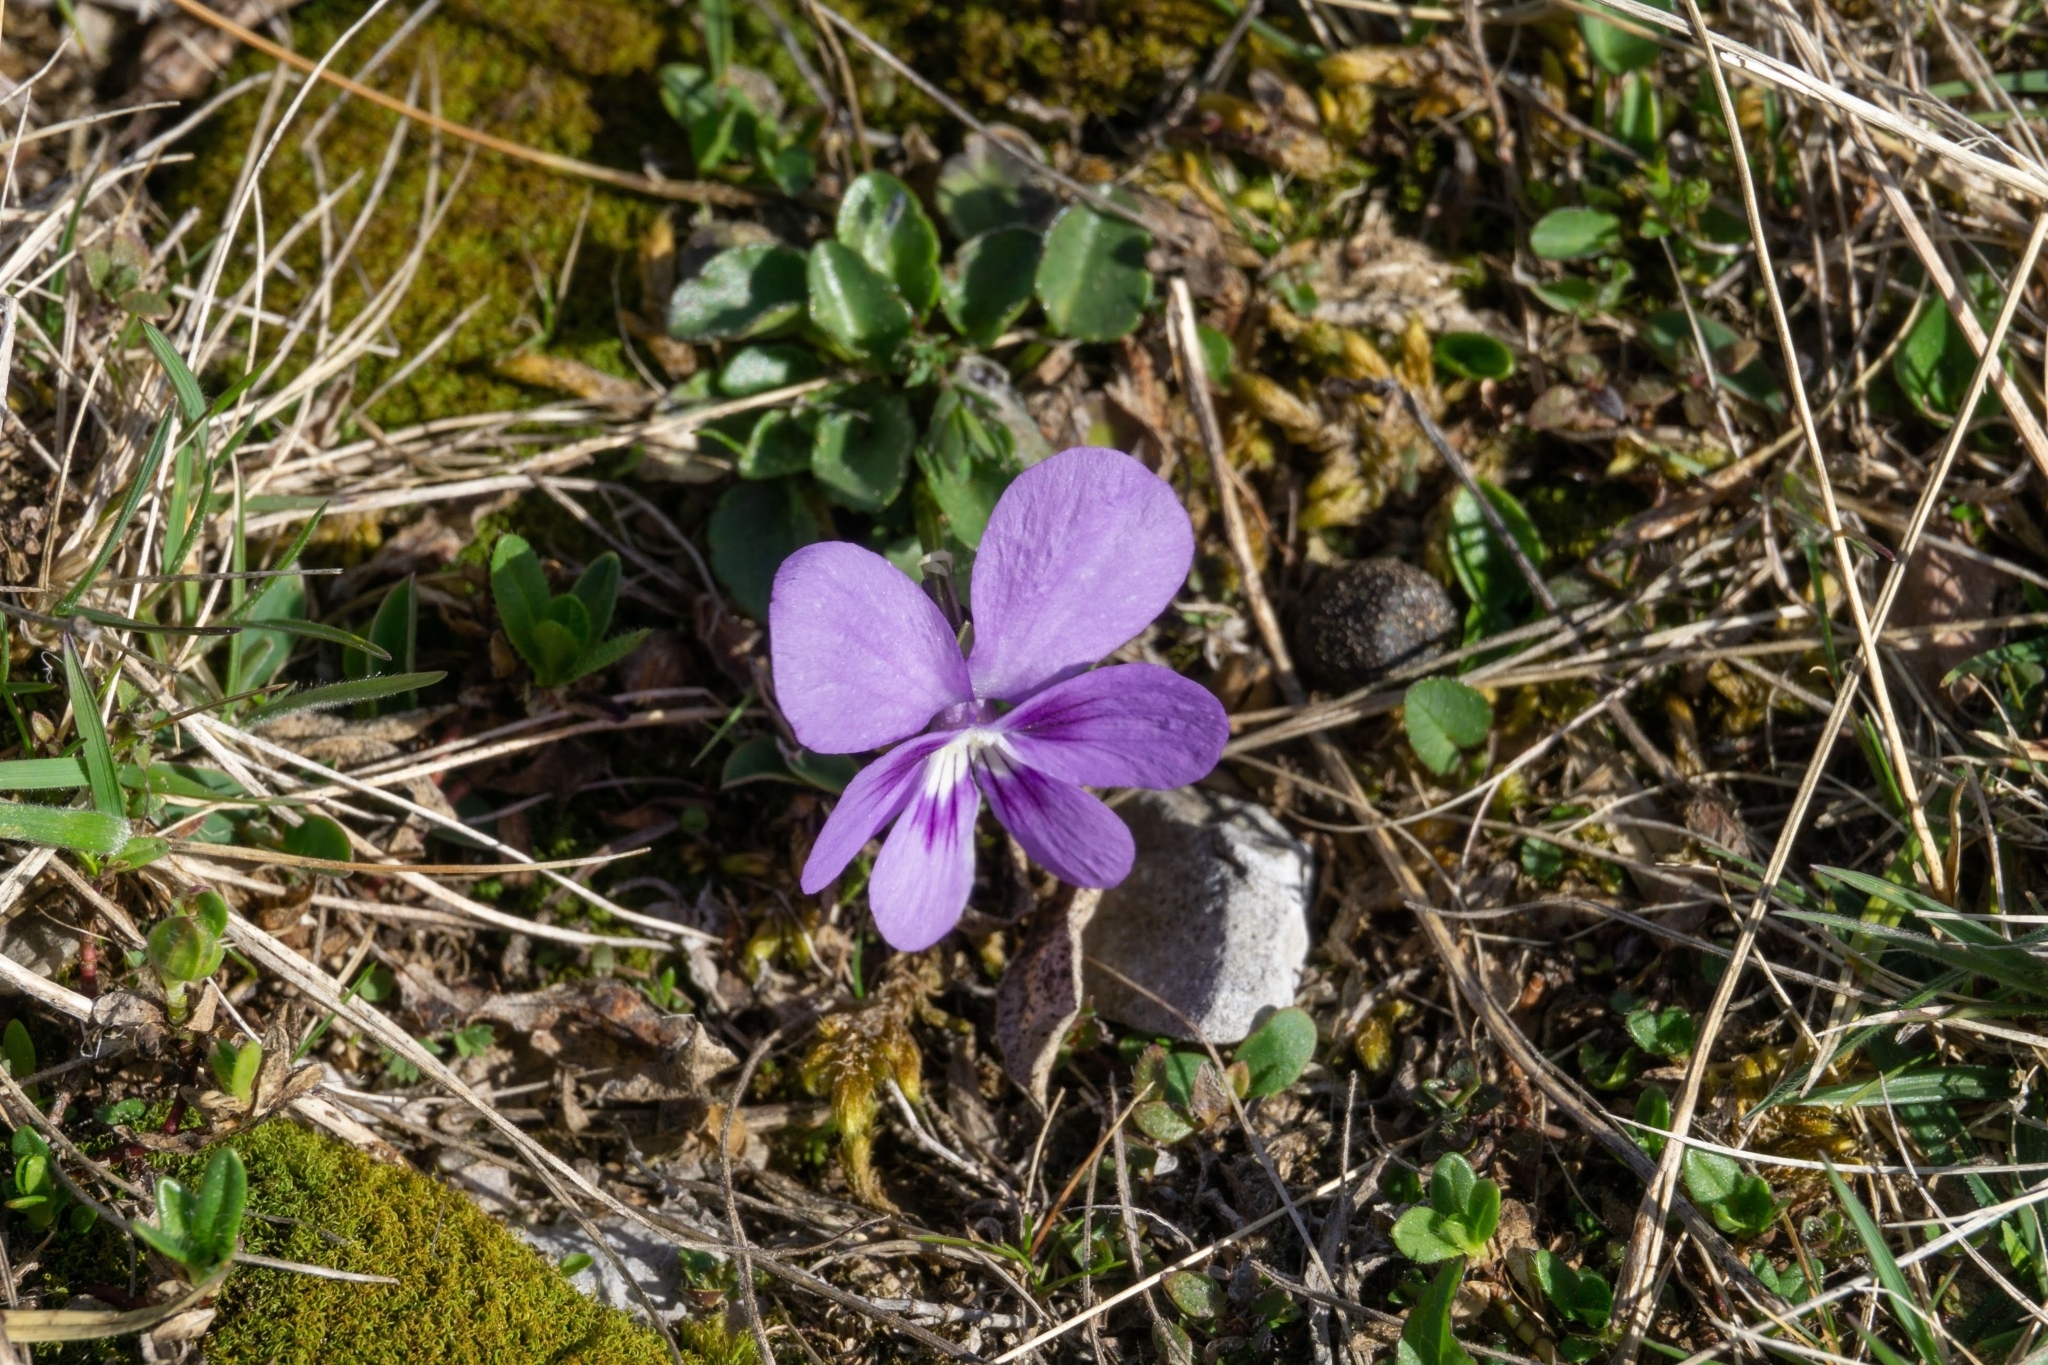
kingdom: Plantae
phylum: Tracheophyta
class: Magnoliopsida
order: Malpighiales
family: Violaceae
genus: Viola
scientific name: Viola alpina
